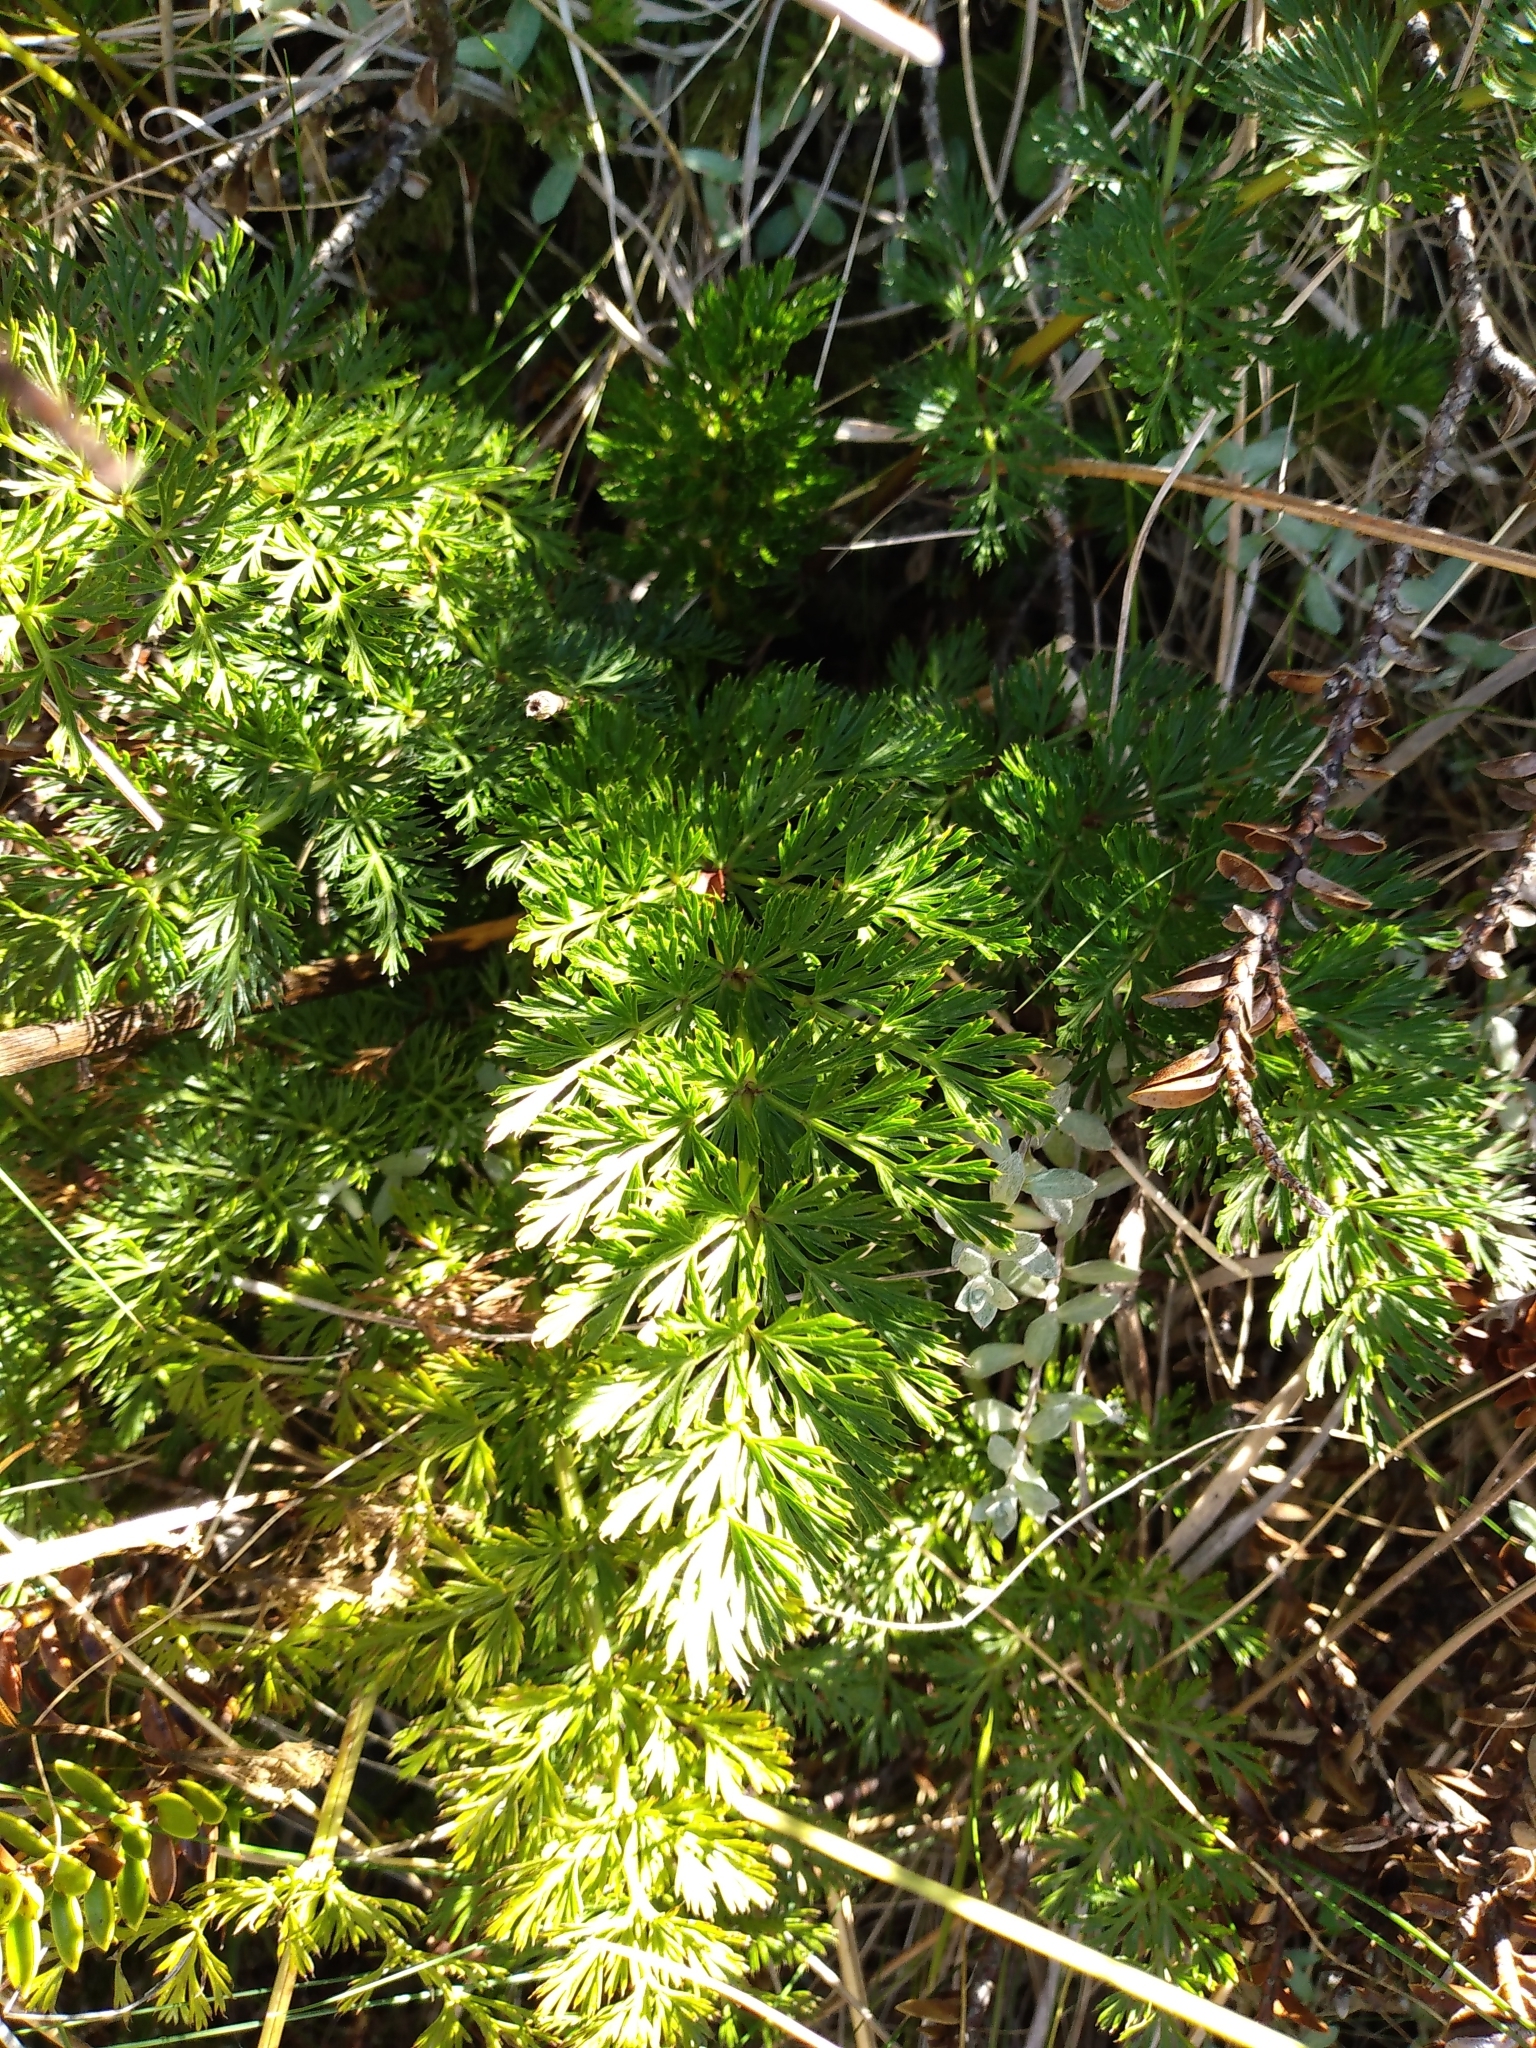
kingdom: Plantae
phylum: Tracheophyta
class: Magnoliopsida
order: Apiales
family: Apiaceae
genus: Anisotome
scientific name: Anisotome haastii
